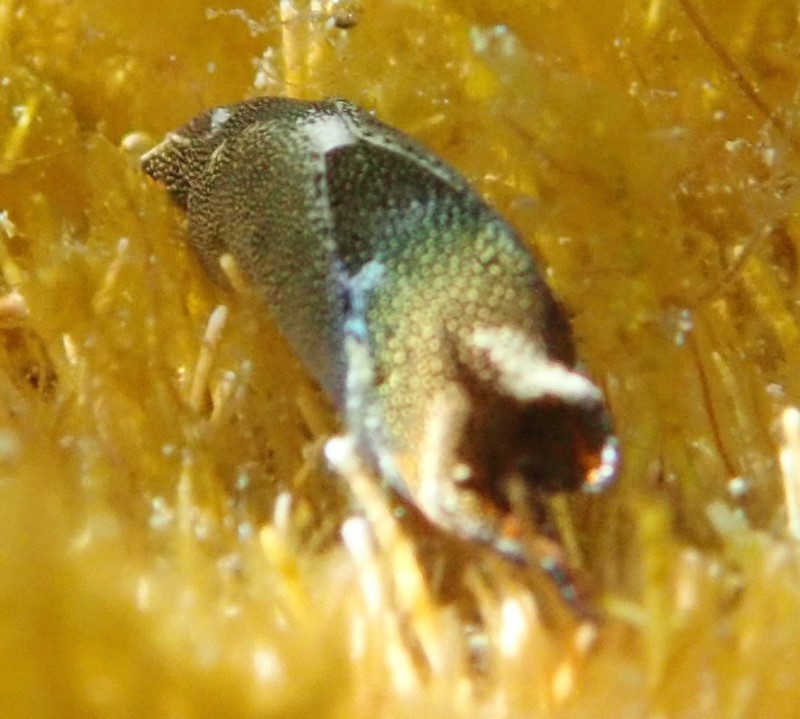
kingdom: Animalia
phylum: Mollusca
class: Gastropoda
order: Cephalaspidea
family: Aglajidae
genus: Biuve
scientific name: Biuve fulvipunctata
